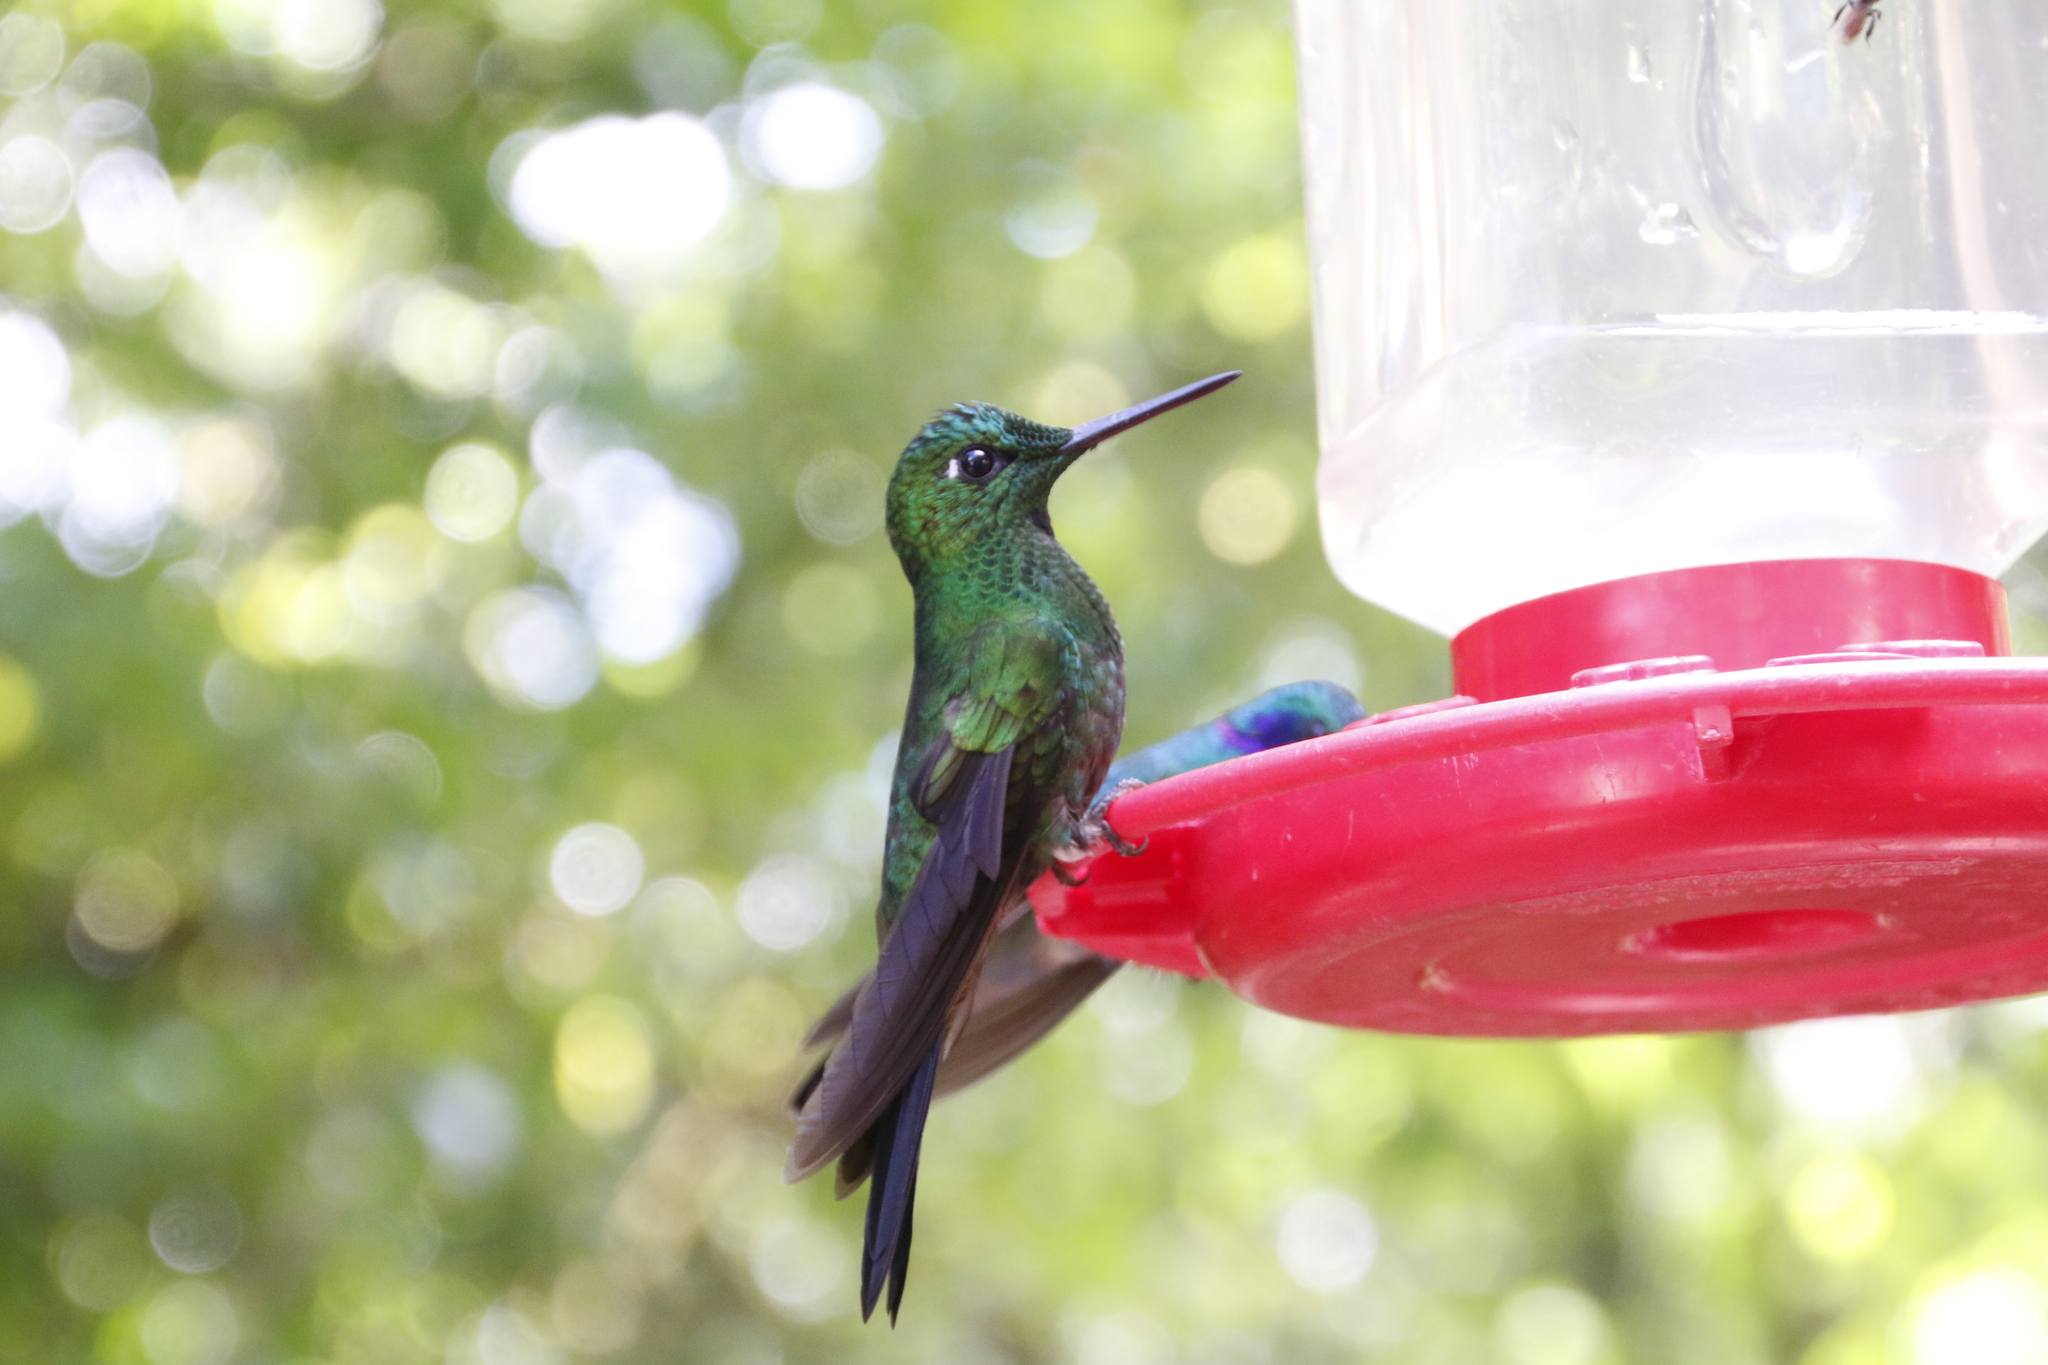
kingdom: Animalia
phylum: Chordata
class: Aves
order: Apodiformes
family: Trochilidae
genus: Heliodoxa
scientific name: Heliodoxa jacula
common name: Green-crowned brilliant
